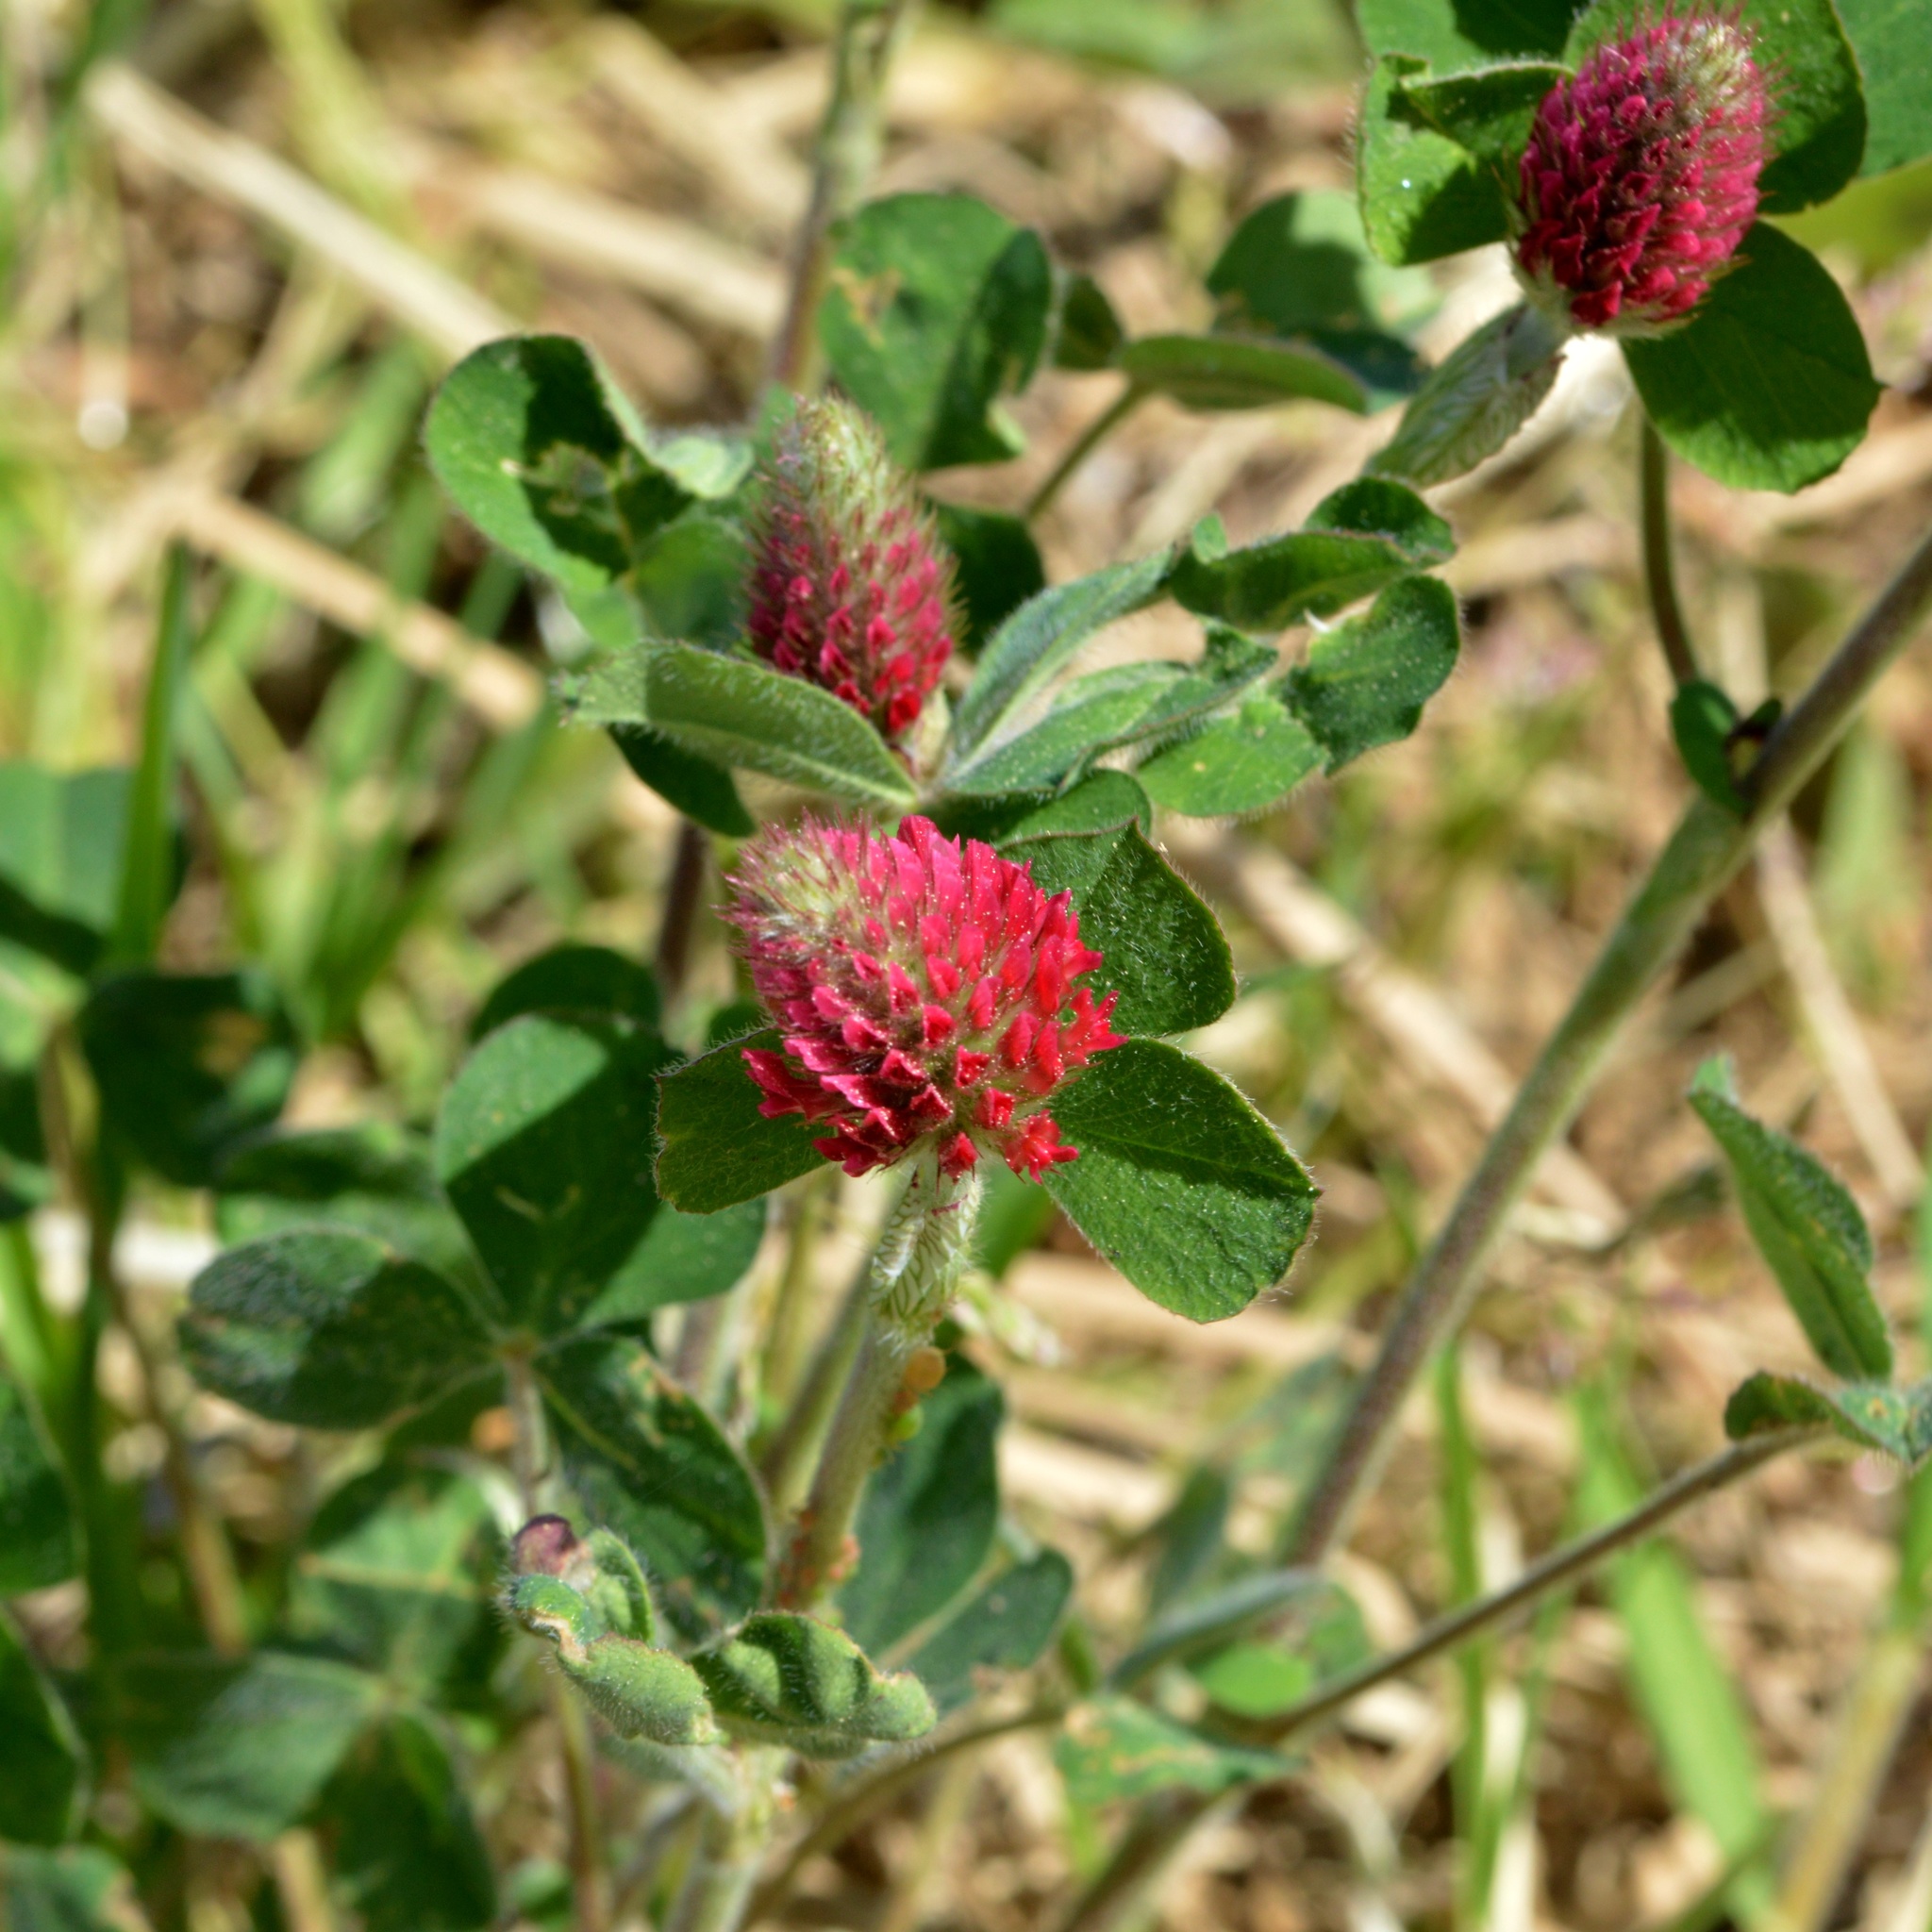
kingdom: Plantae
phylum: Tracheophyta
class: Magnoliopsida
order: Fabales
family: Fabaceae
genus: Trifolium
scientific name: Trifolium incarnatum
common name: Crimson clover
